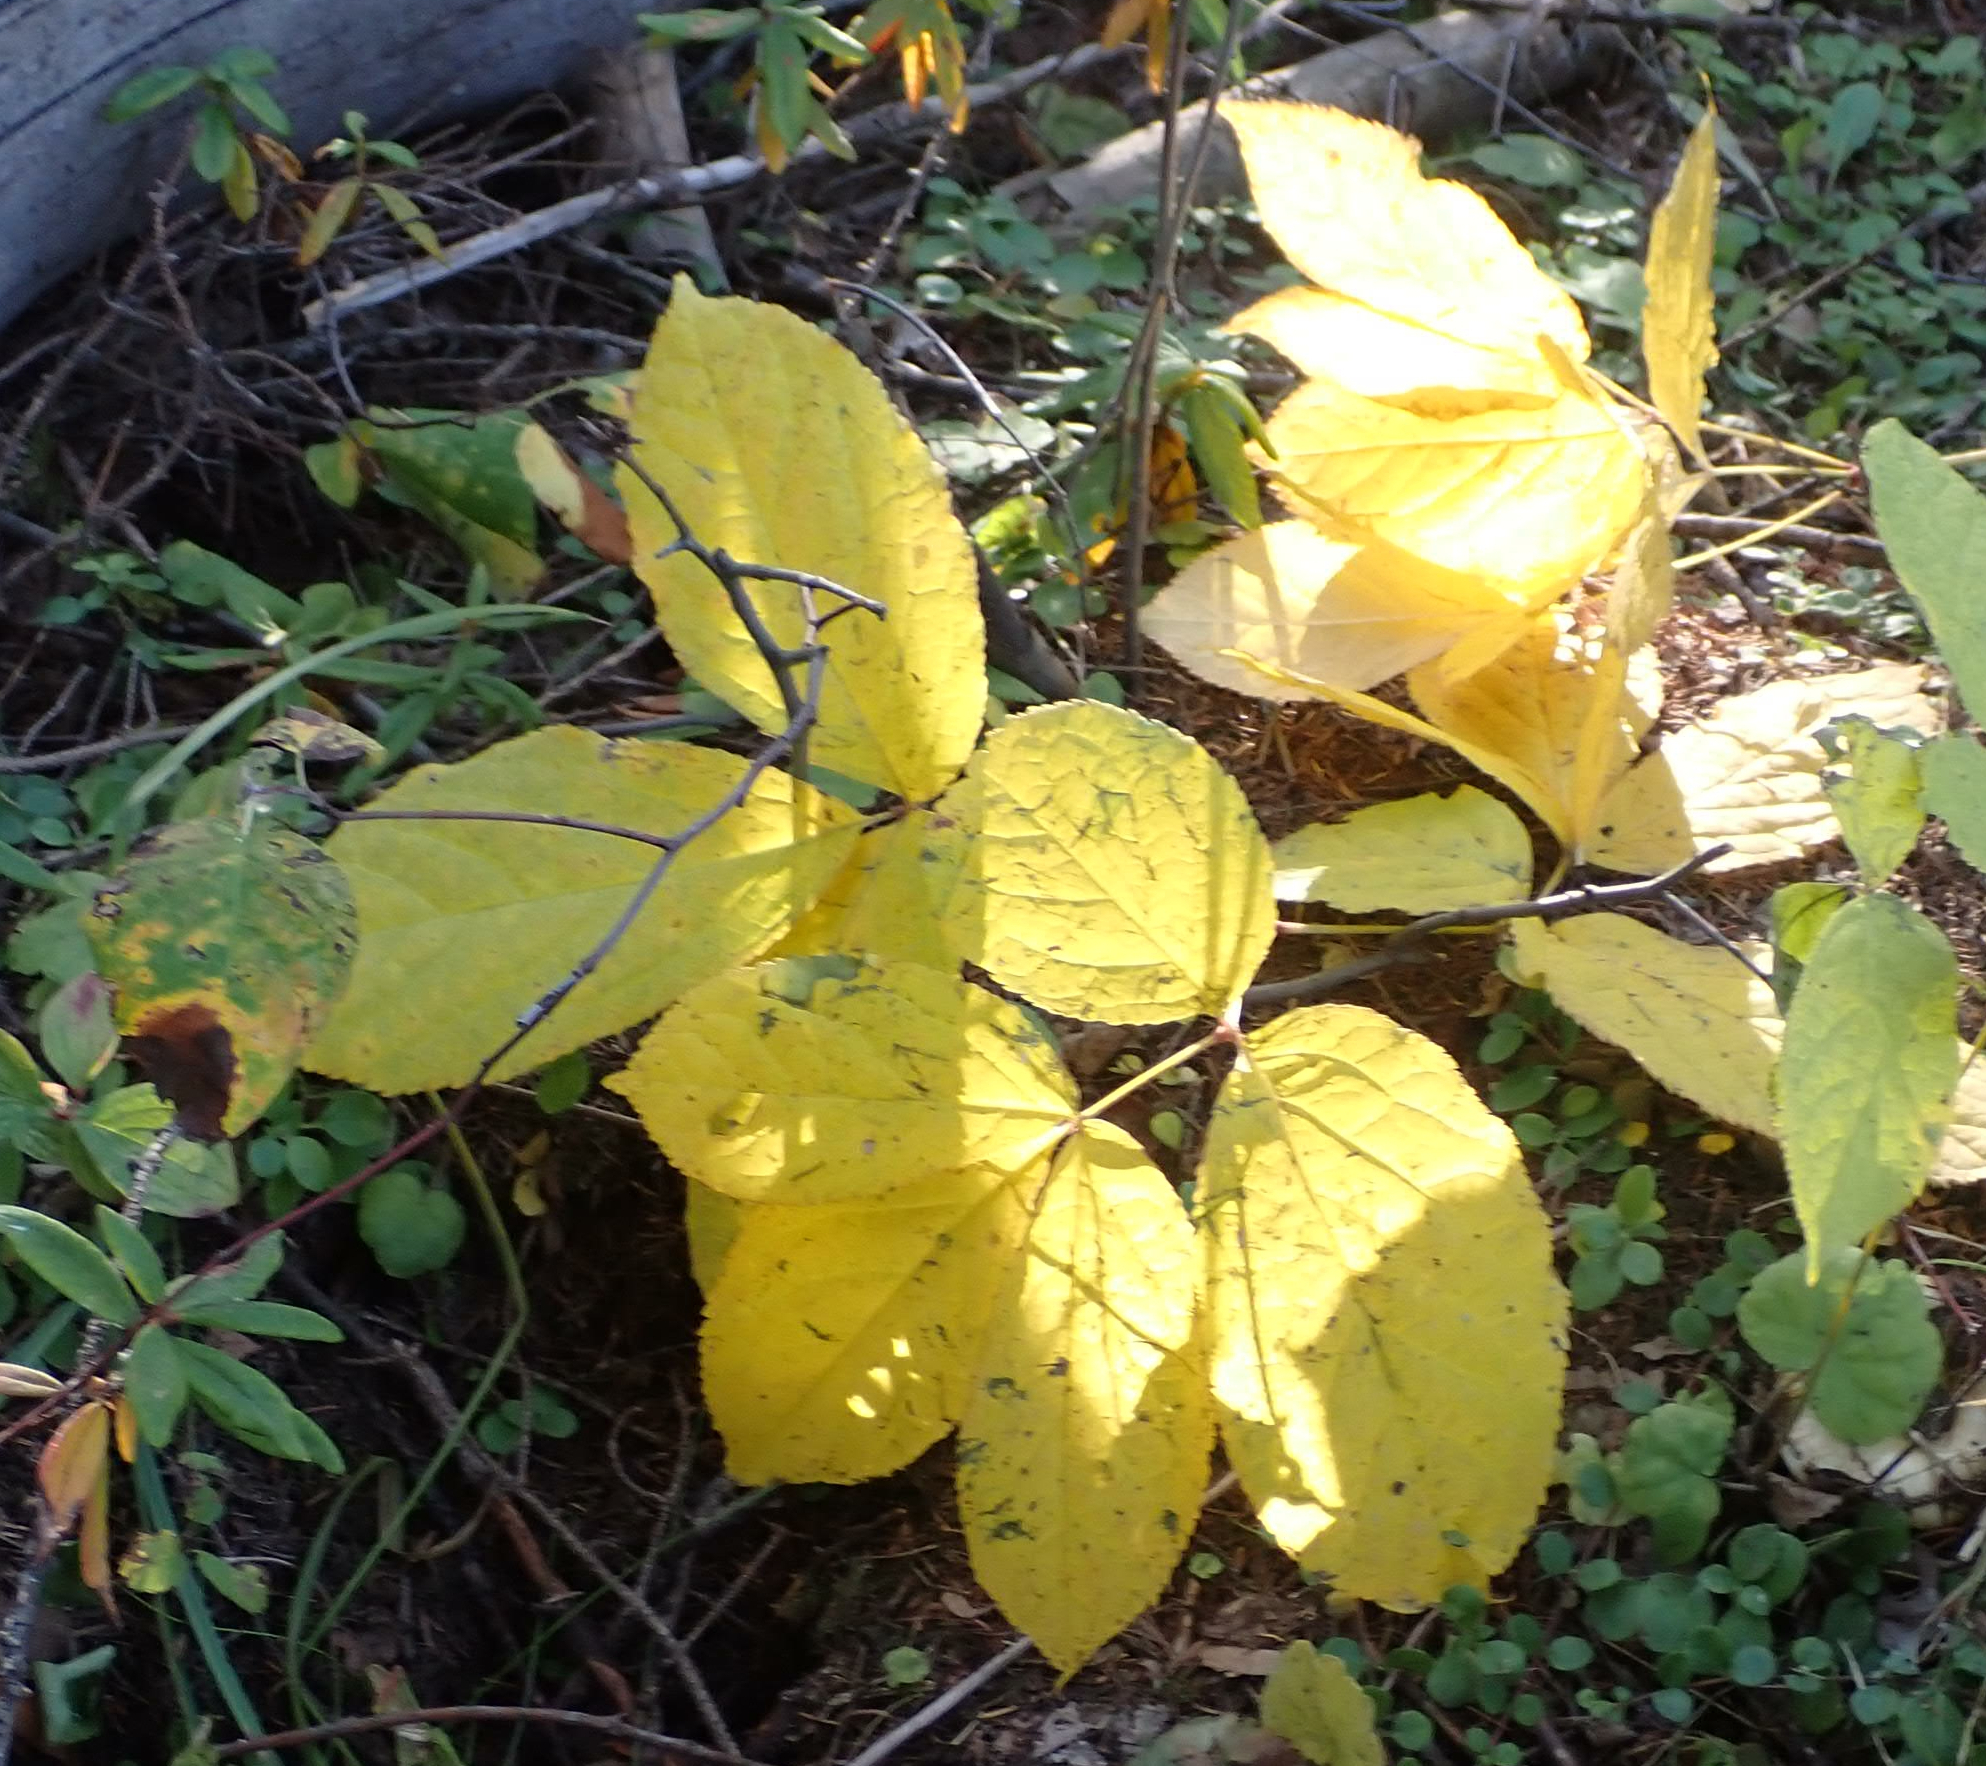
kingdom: Plantae
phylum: Tracheophyta
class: Magnoliopsida
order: Apiales
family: Araliaceae
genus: Aralia
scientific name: Aralia nudicaulis
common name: Wild sarsaparilla
